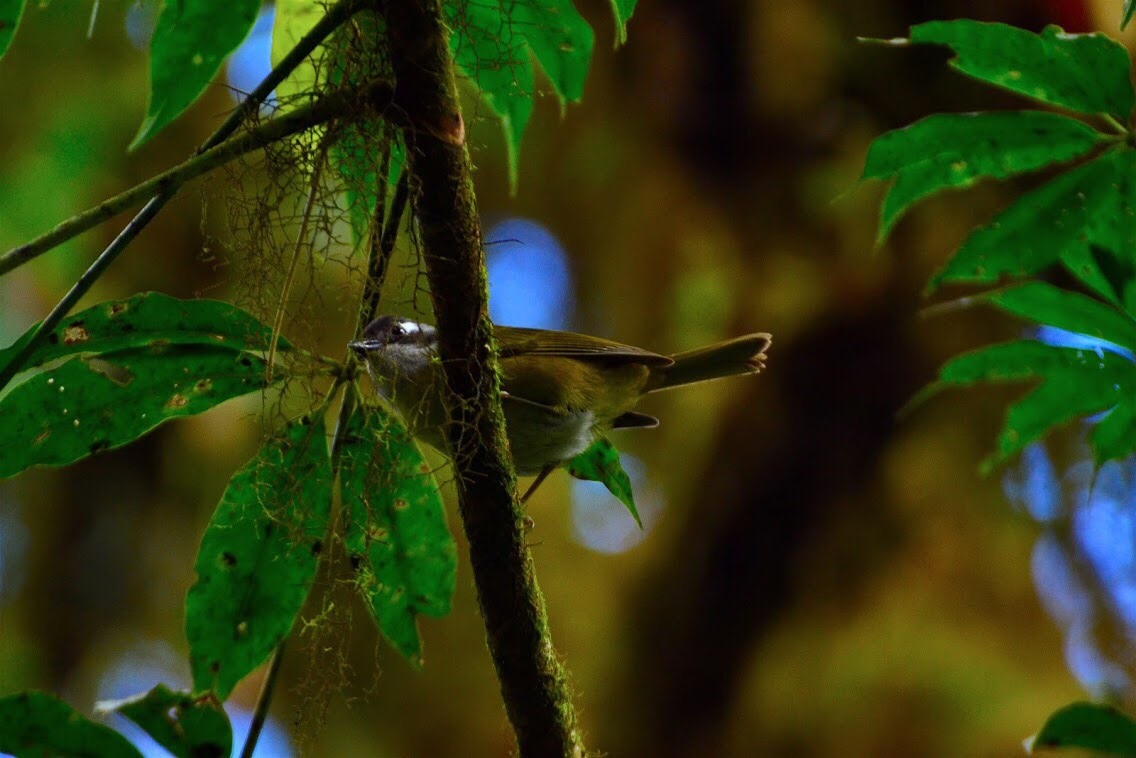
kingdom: Animalia
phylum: Chordata
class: Aves
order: Passeriformes
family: Passerellidae
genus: Chlorospingus
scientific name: Chlorospingus flavopectus
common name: Common chlorospingus
